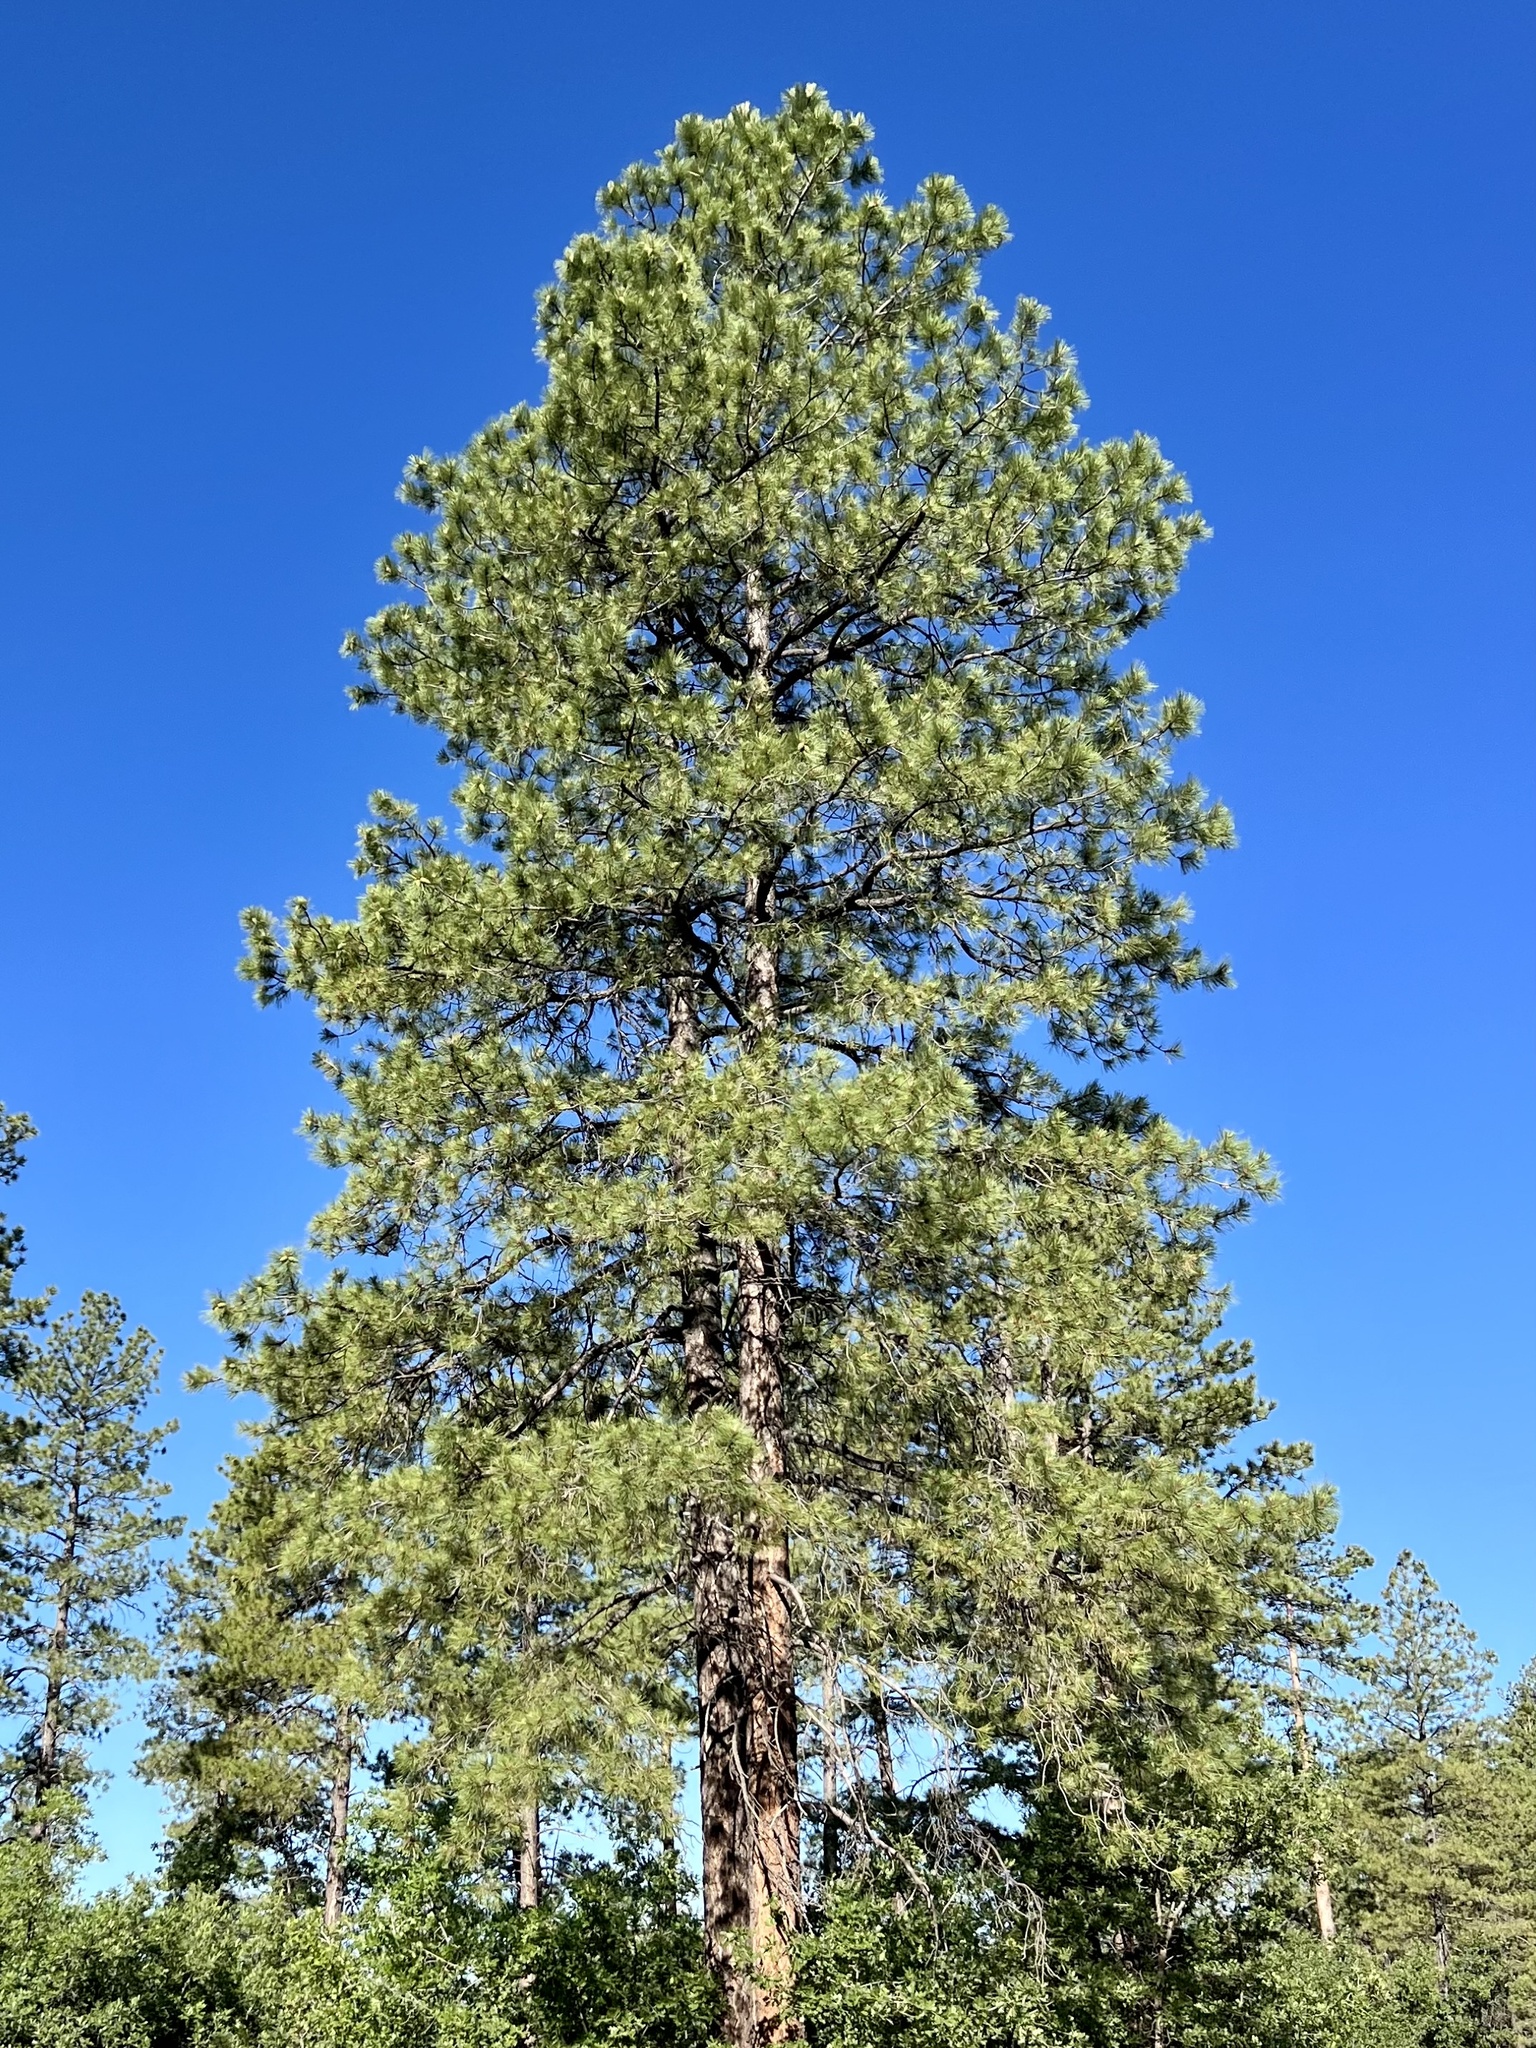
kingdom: Plantae
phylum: Tracheophyta
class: Pinopsida
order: Pinales
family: Pinaceae
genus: Pinus
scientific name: Pinus ponderosa
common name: Western yellow-pine
